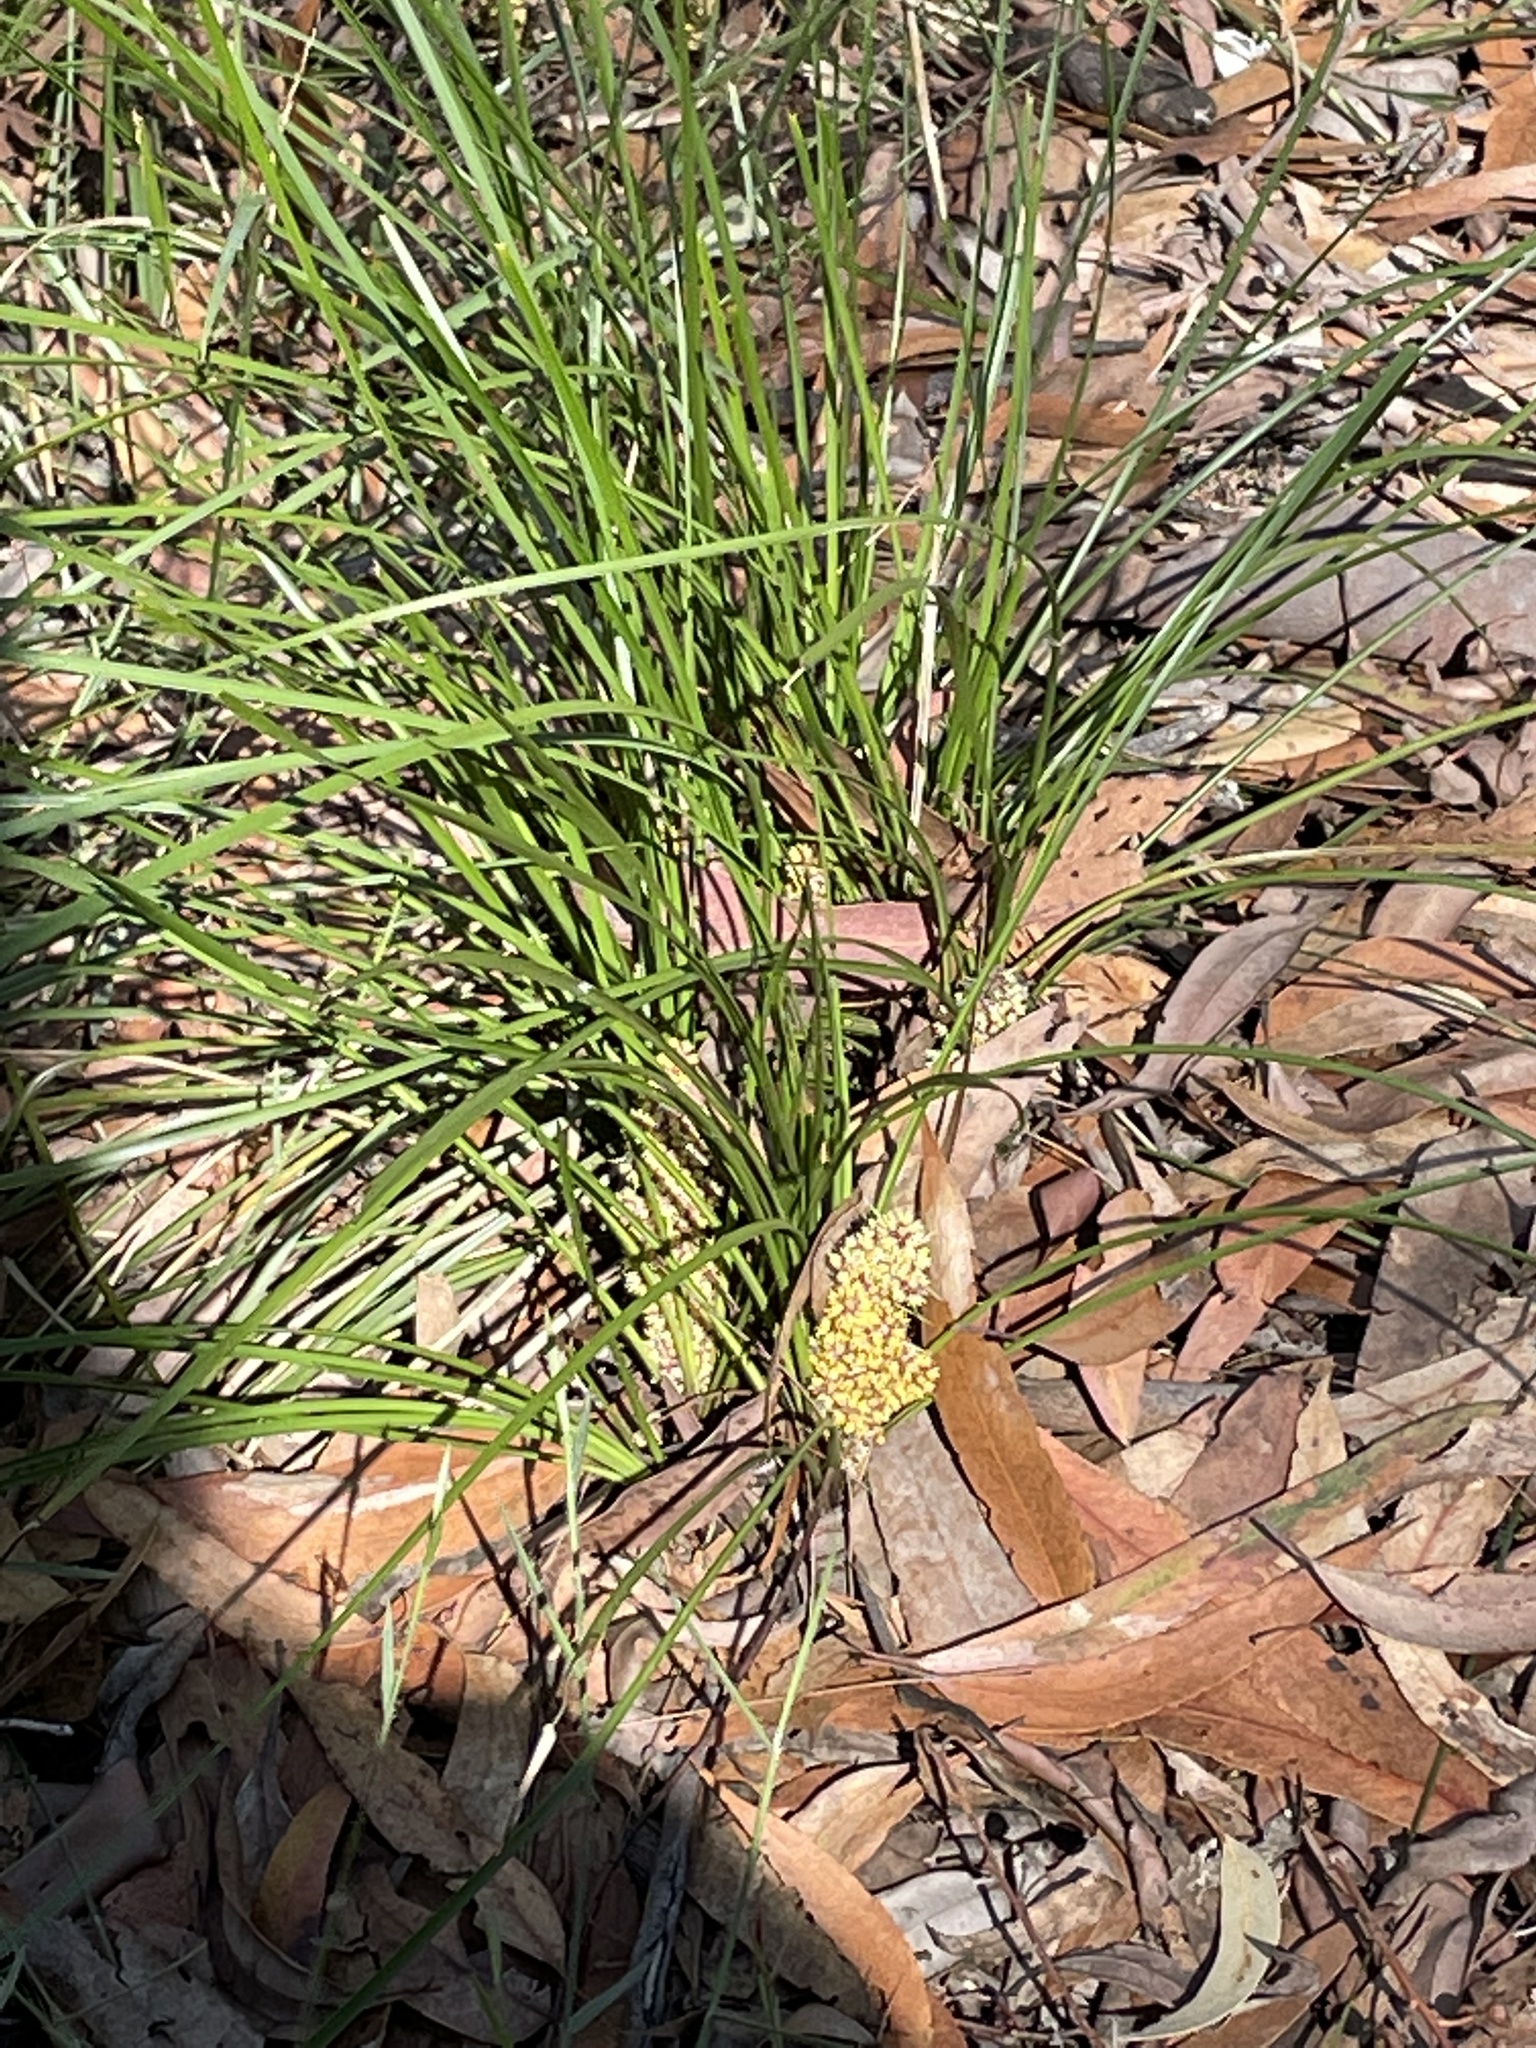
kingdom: Plantae
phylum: Tracheophyta
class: Liliopsida
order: Asparagales
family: Asparagaceae
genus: Lomandra
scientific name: Lomandra confertifolia
